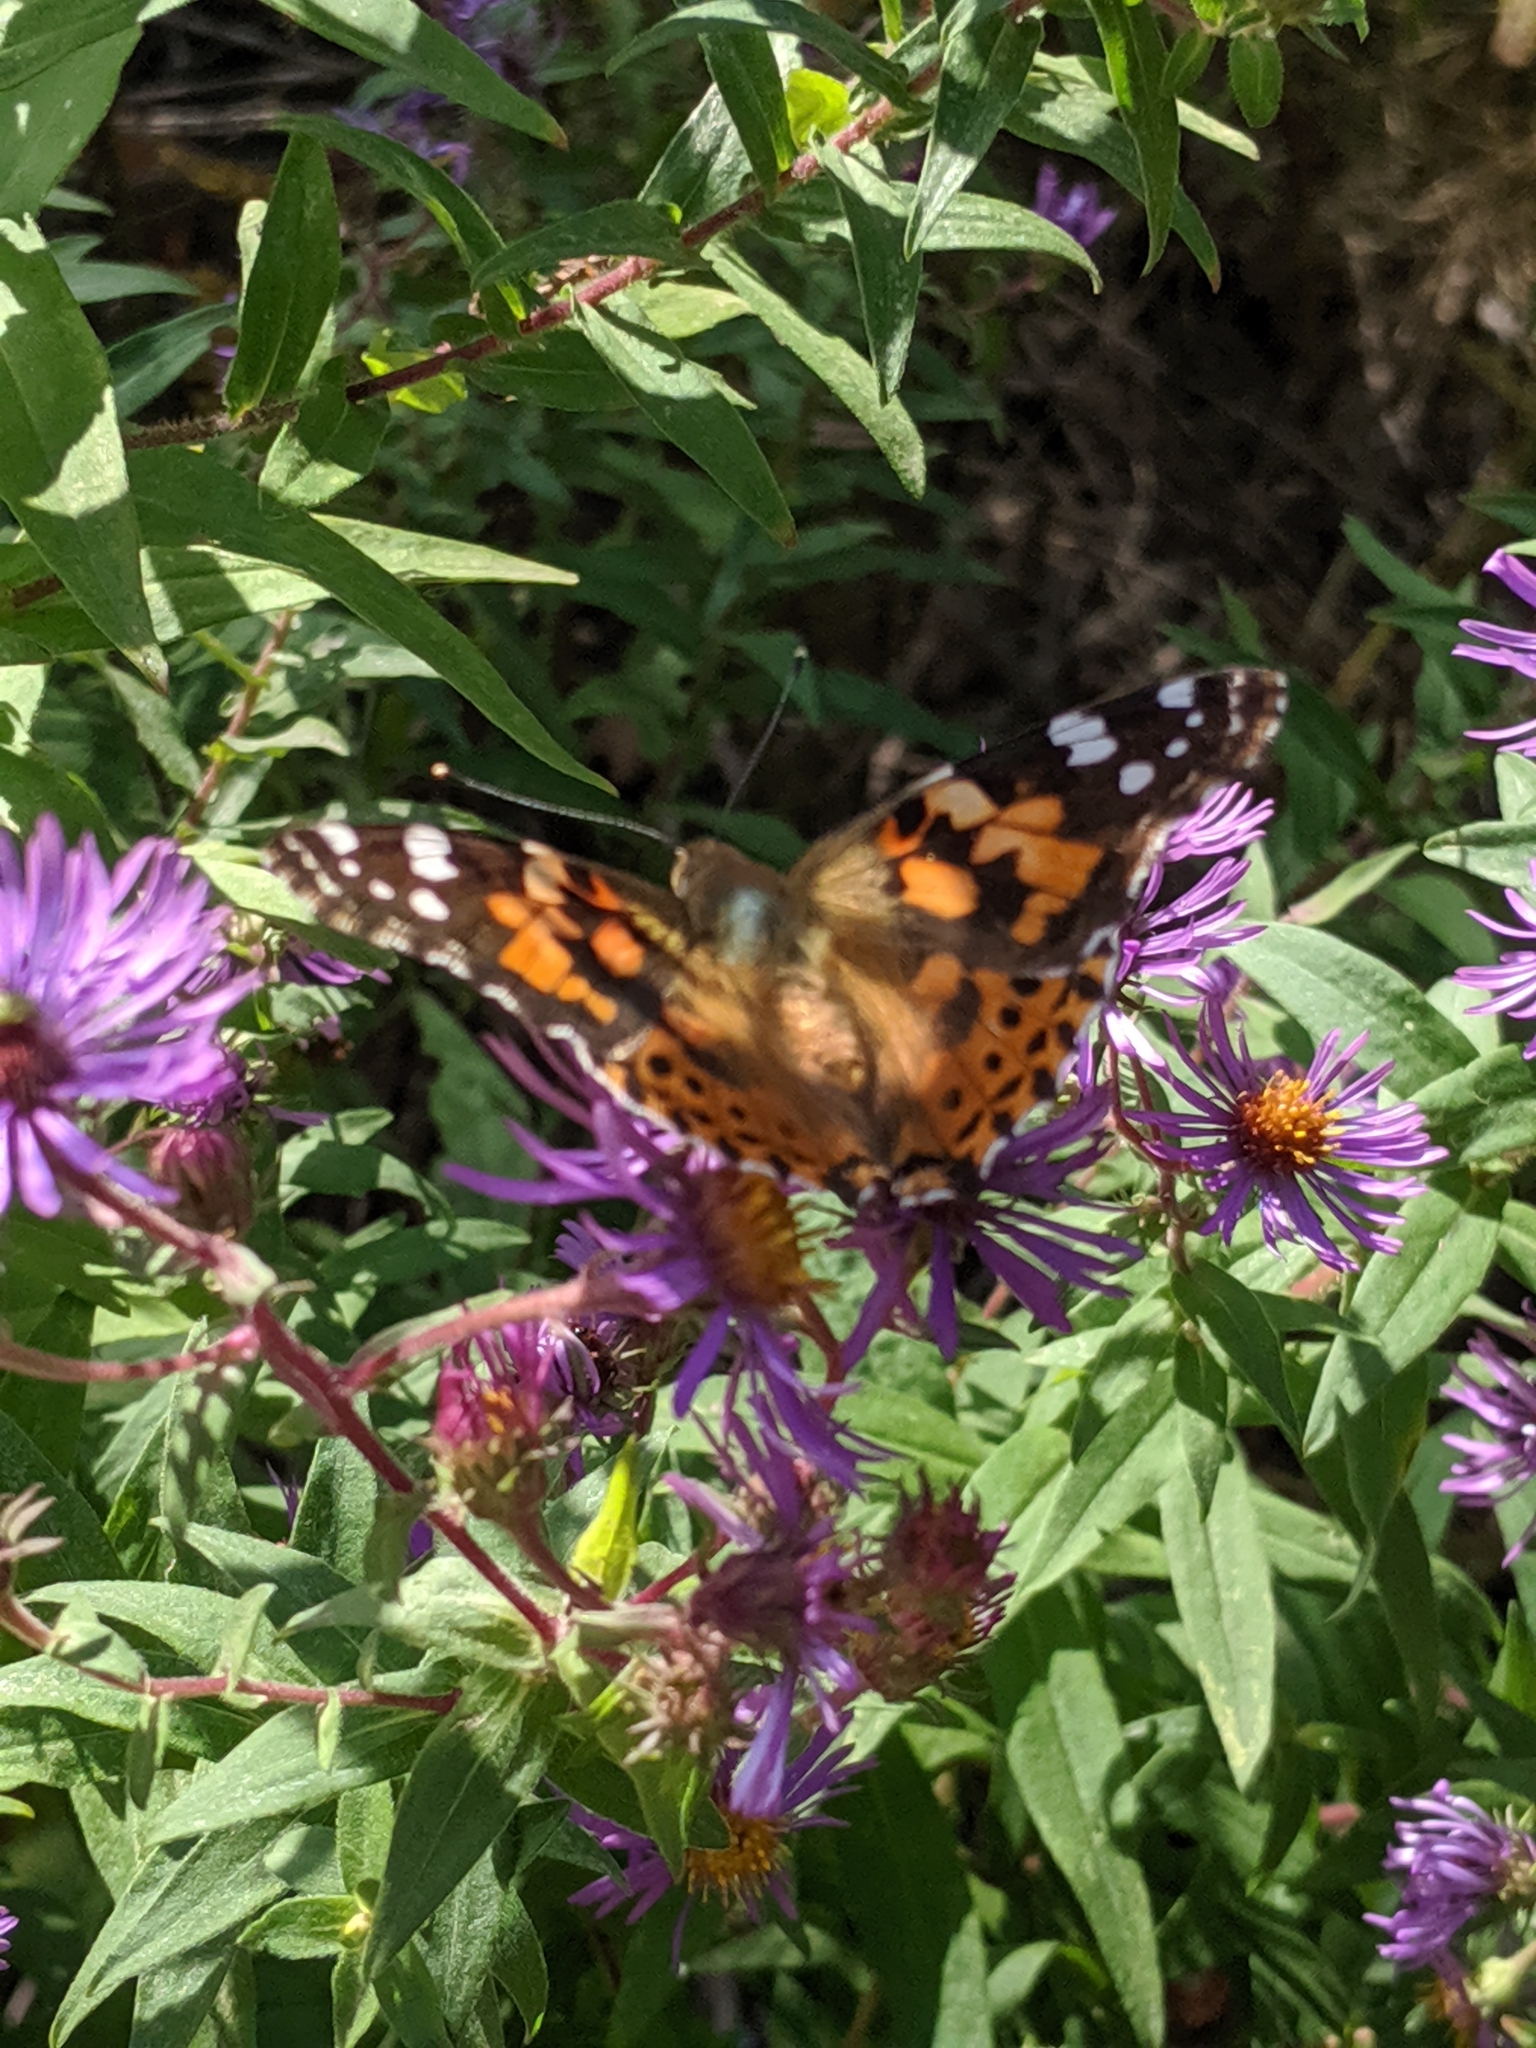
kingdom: Animalia
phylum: Arthropoda
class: Insecta
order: Lepidoptera
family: Nymphalidae
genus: Vanessa
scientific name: Vanessa cardui
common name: Painted lady
